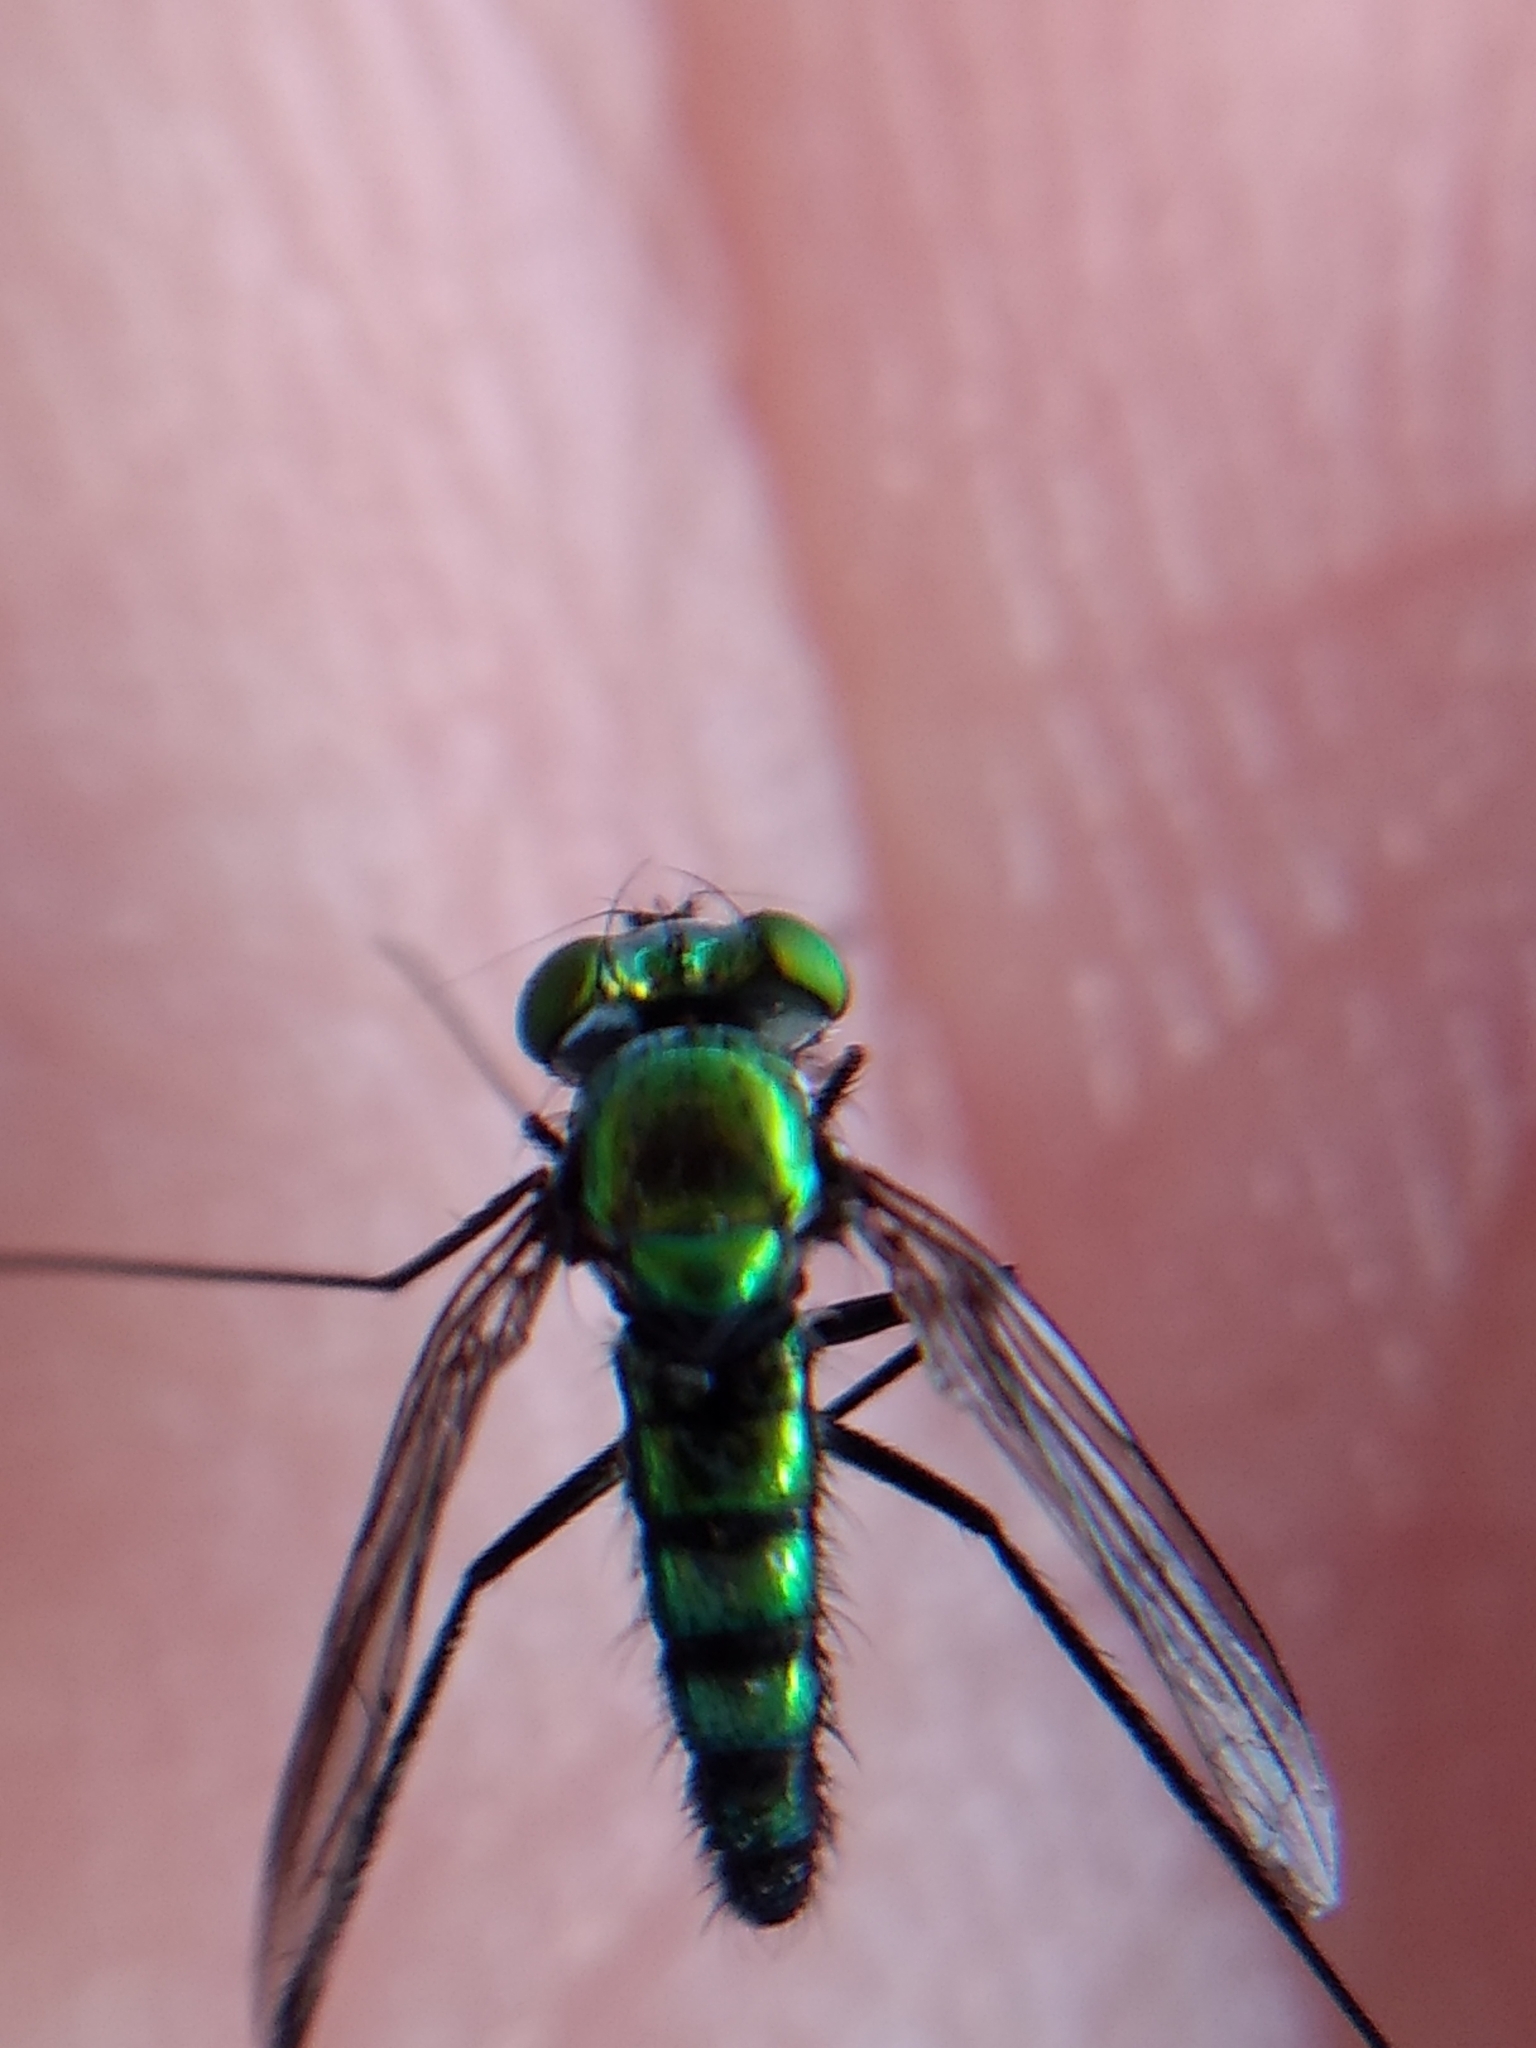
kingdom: Animalia
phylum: Arthropoda
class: Insecta
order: Diptera
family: Dolichopodidae
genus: Condylostylus
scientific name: Condylostylus longicornis
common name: Long-legged fly
